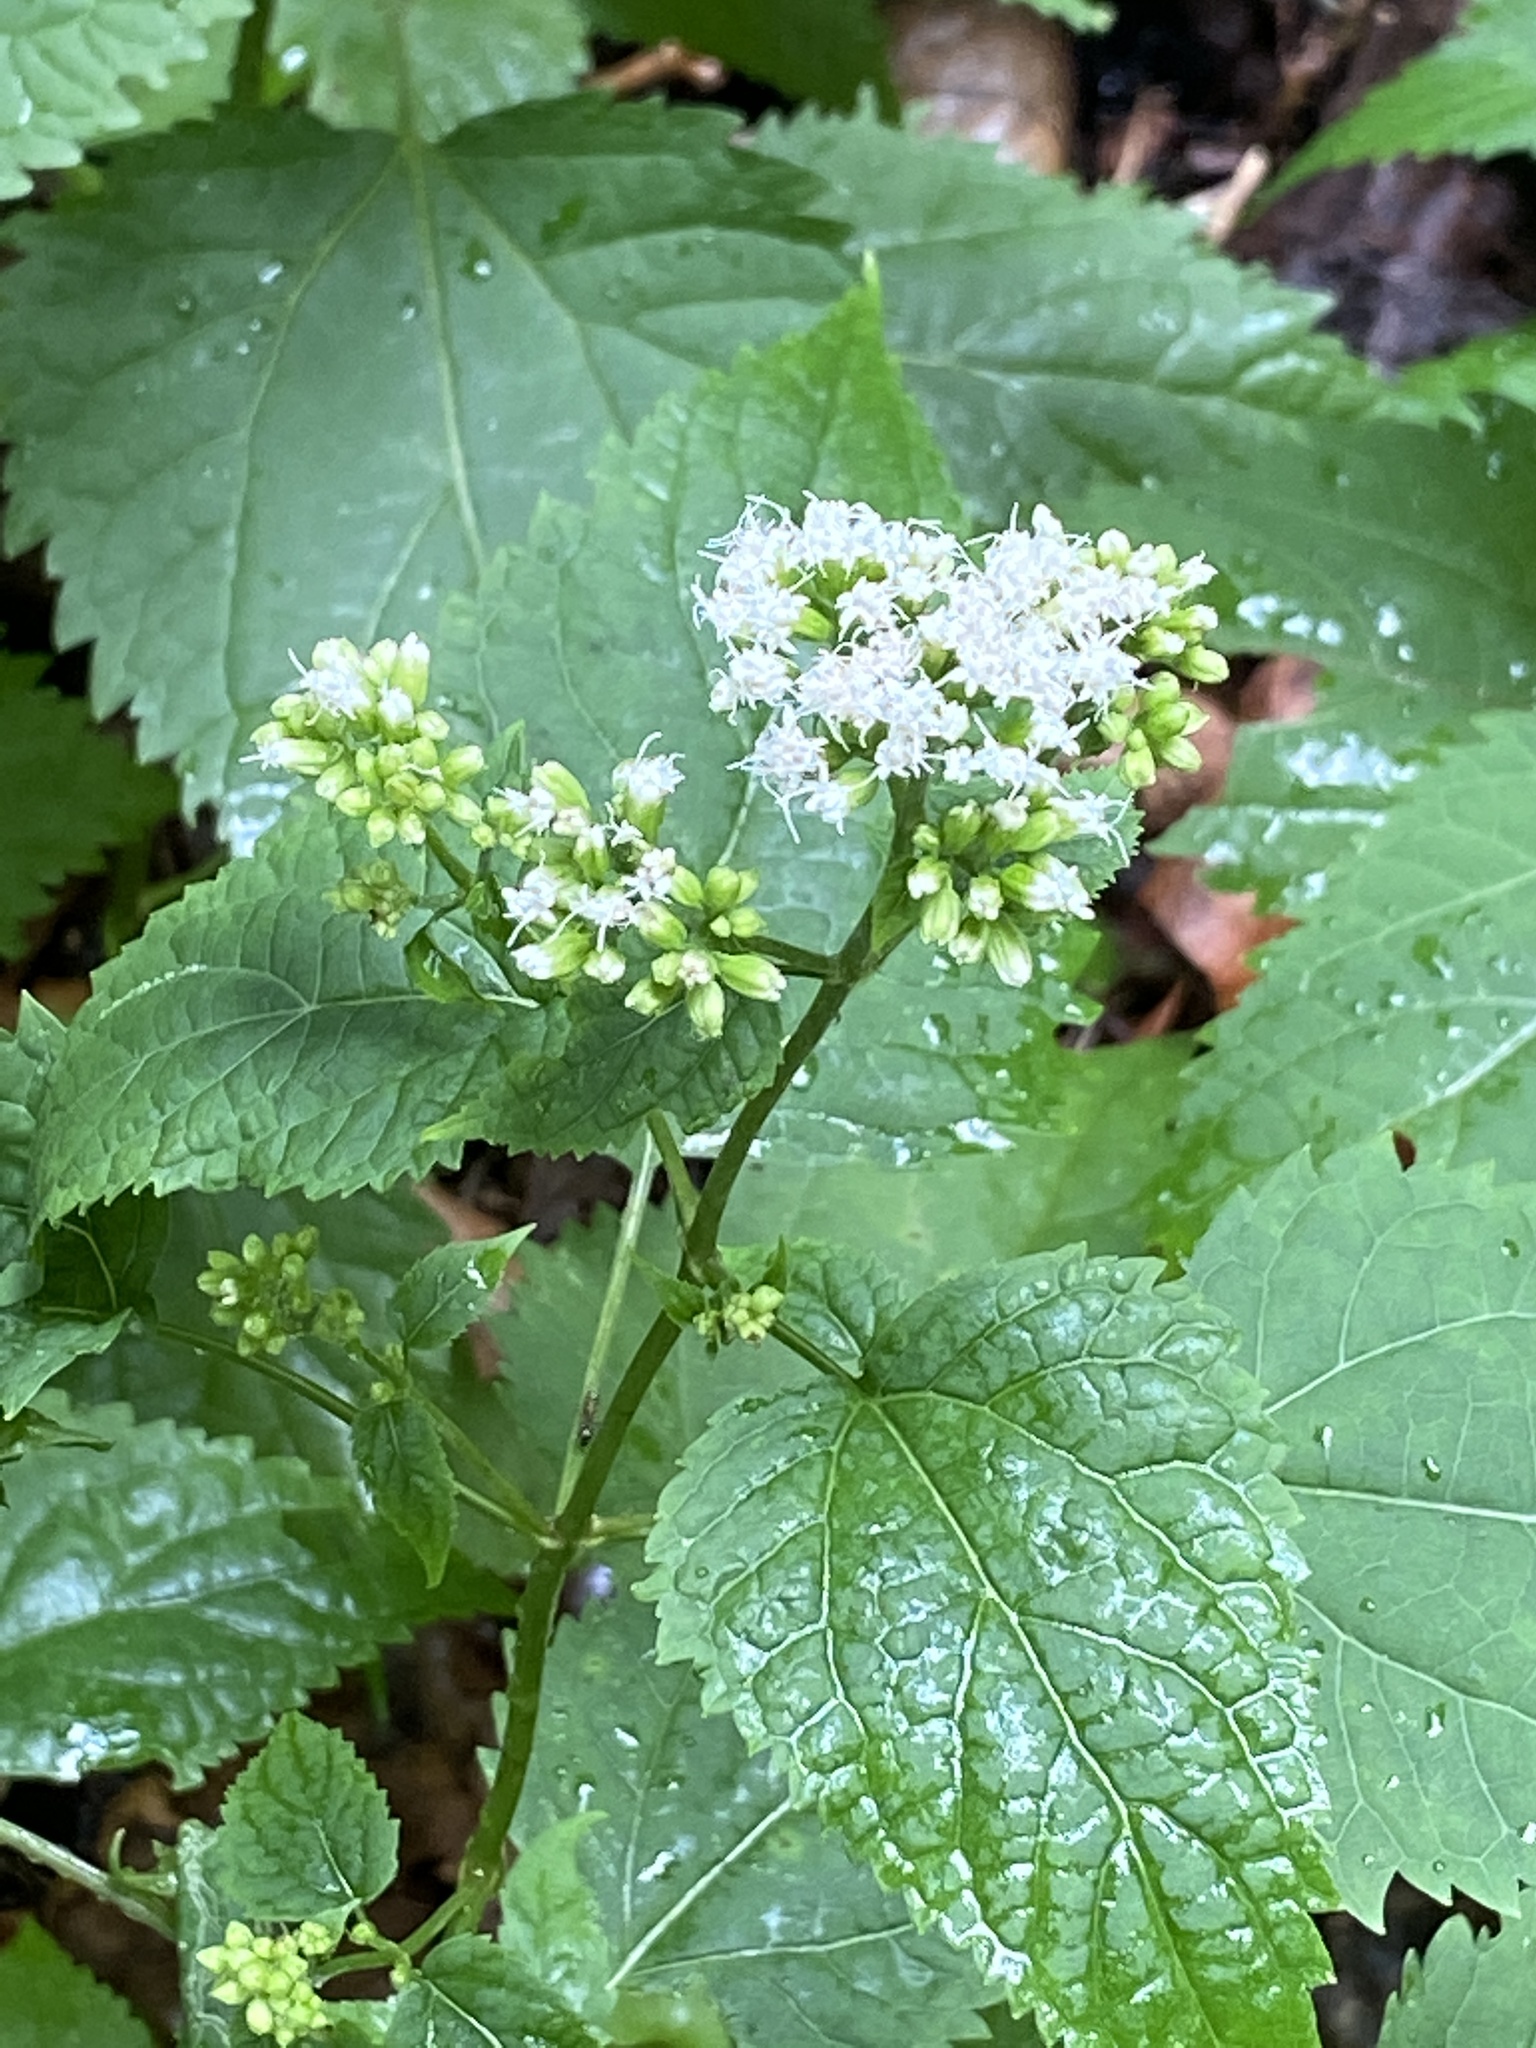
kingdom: Plantae
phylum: Tracheophyta
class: Magnoliopsida
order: Asterales
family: Asteraceae
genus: Ageratina
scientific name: Ageratina altissima
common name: White snakeroot
